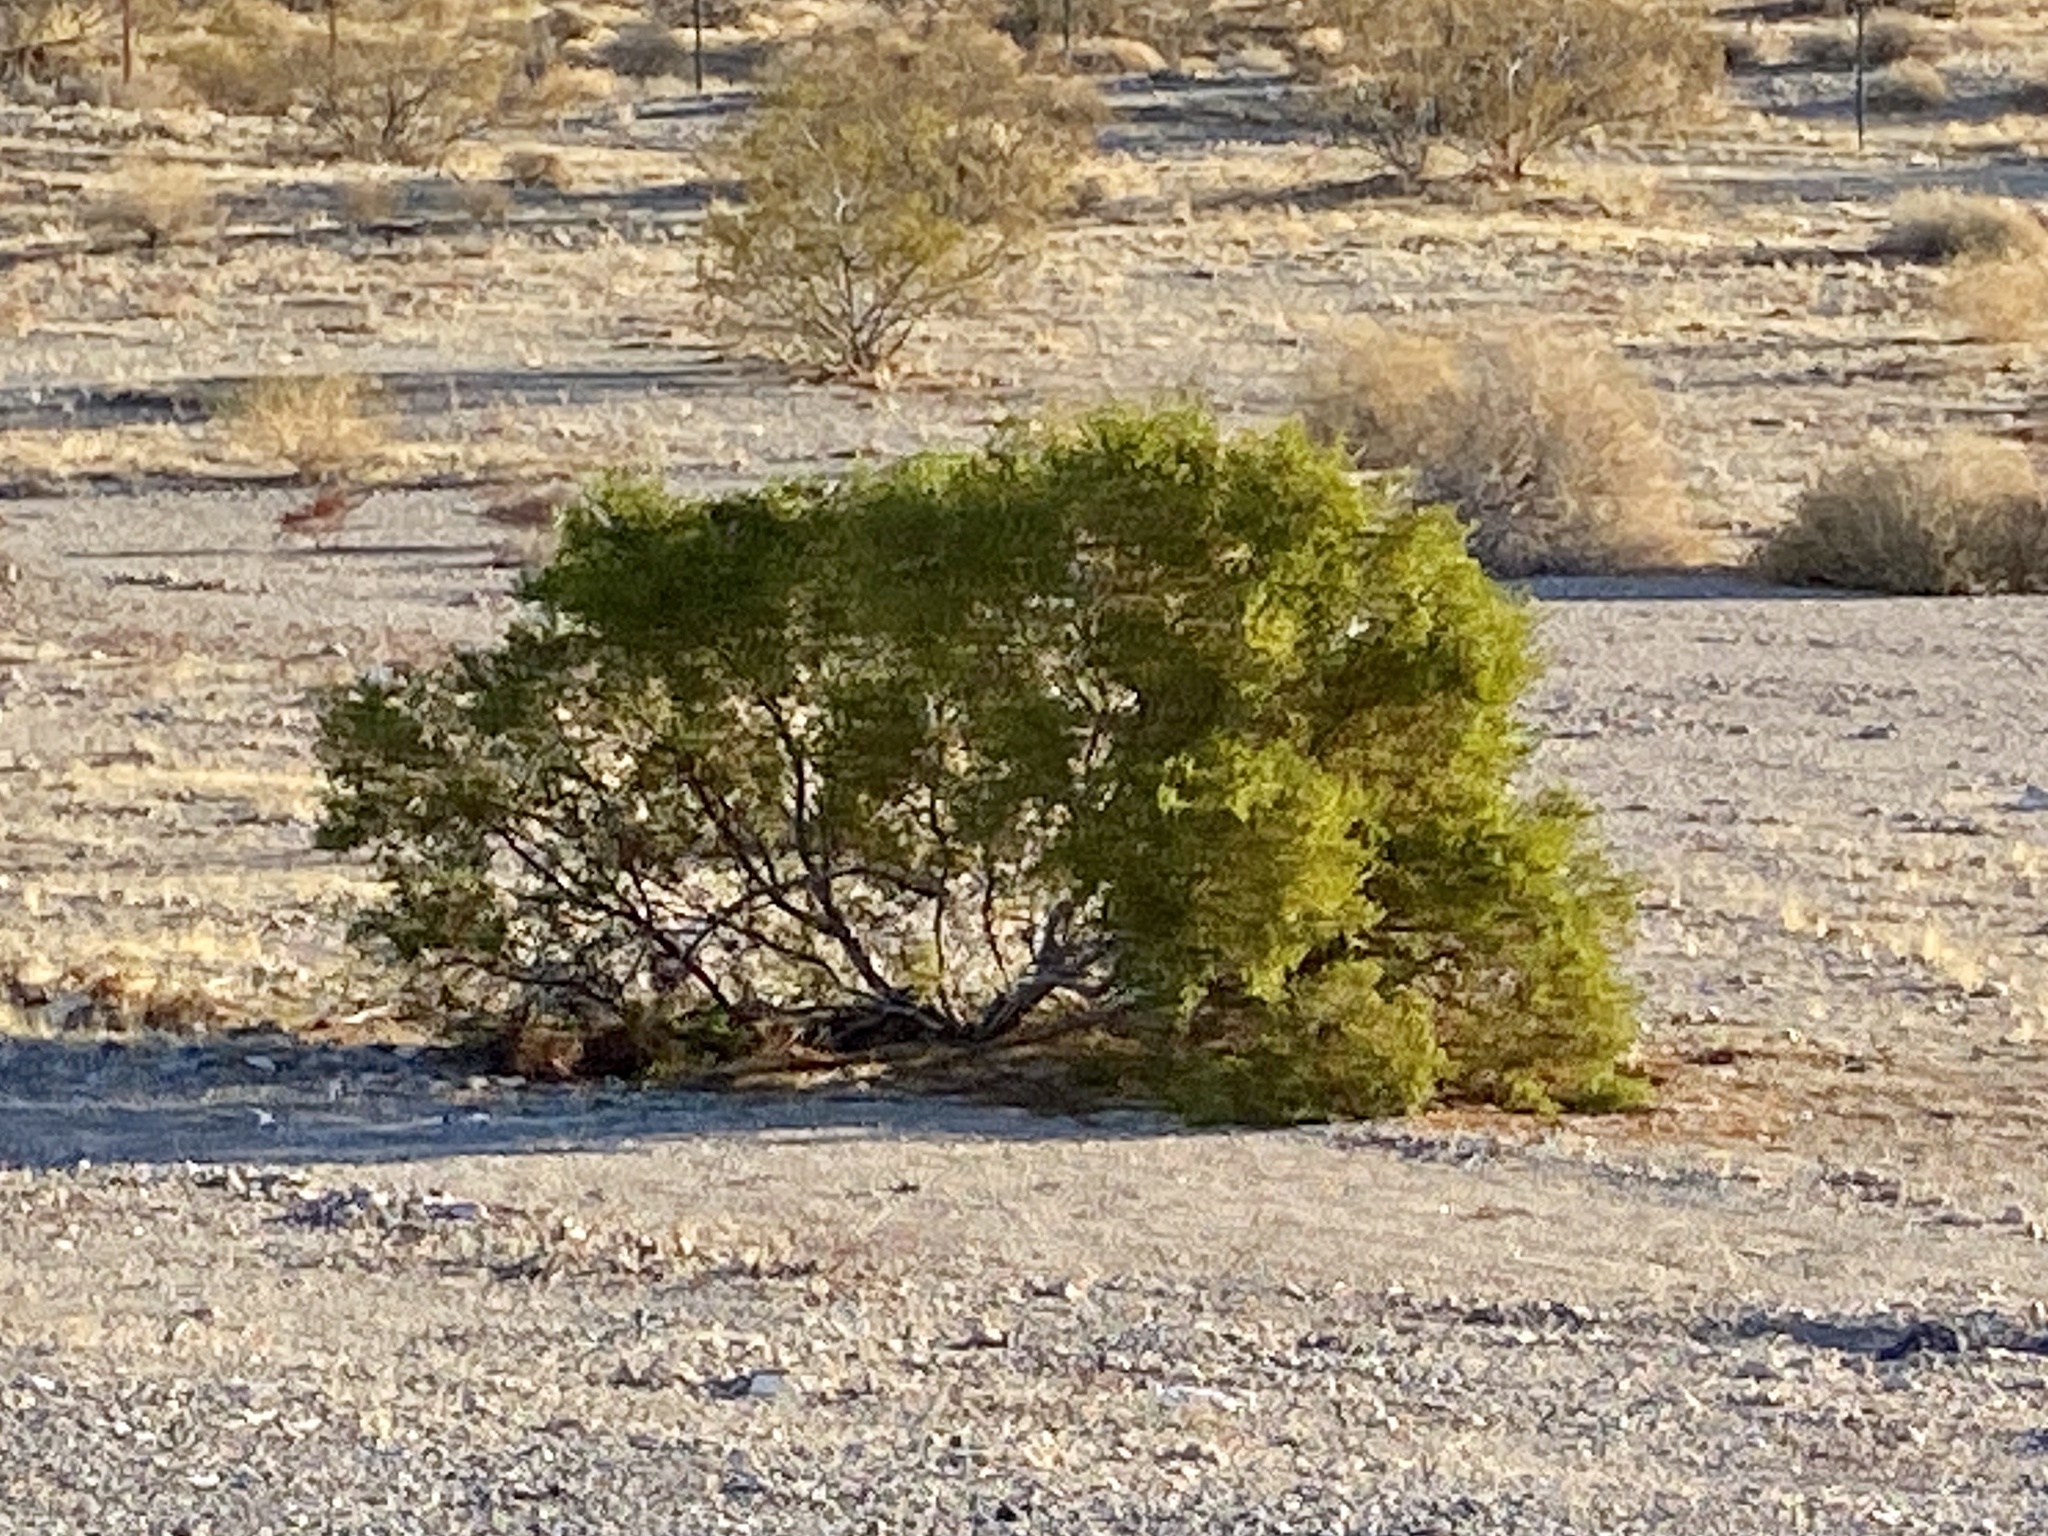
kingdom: Plantae
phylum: Tracheophyta
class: Magnoliopsida
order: Zygophyllales
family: Zygophyllaceae
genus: Larrea
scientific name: Larrea tridentata
